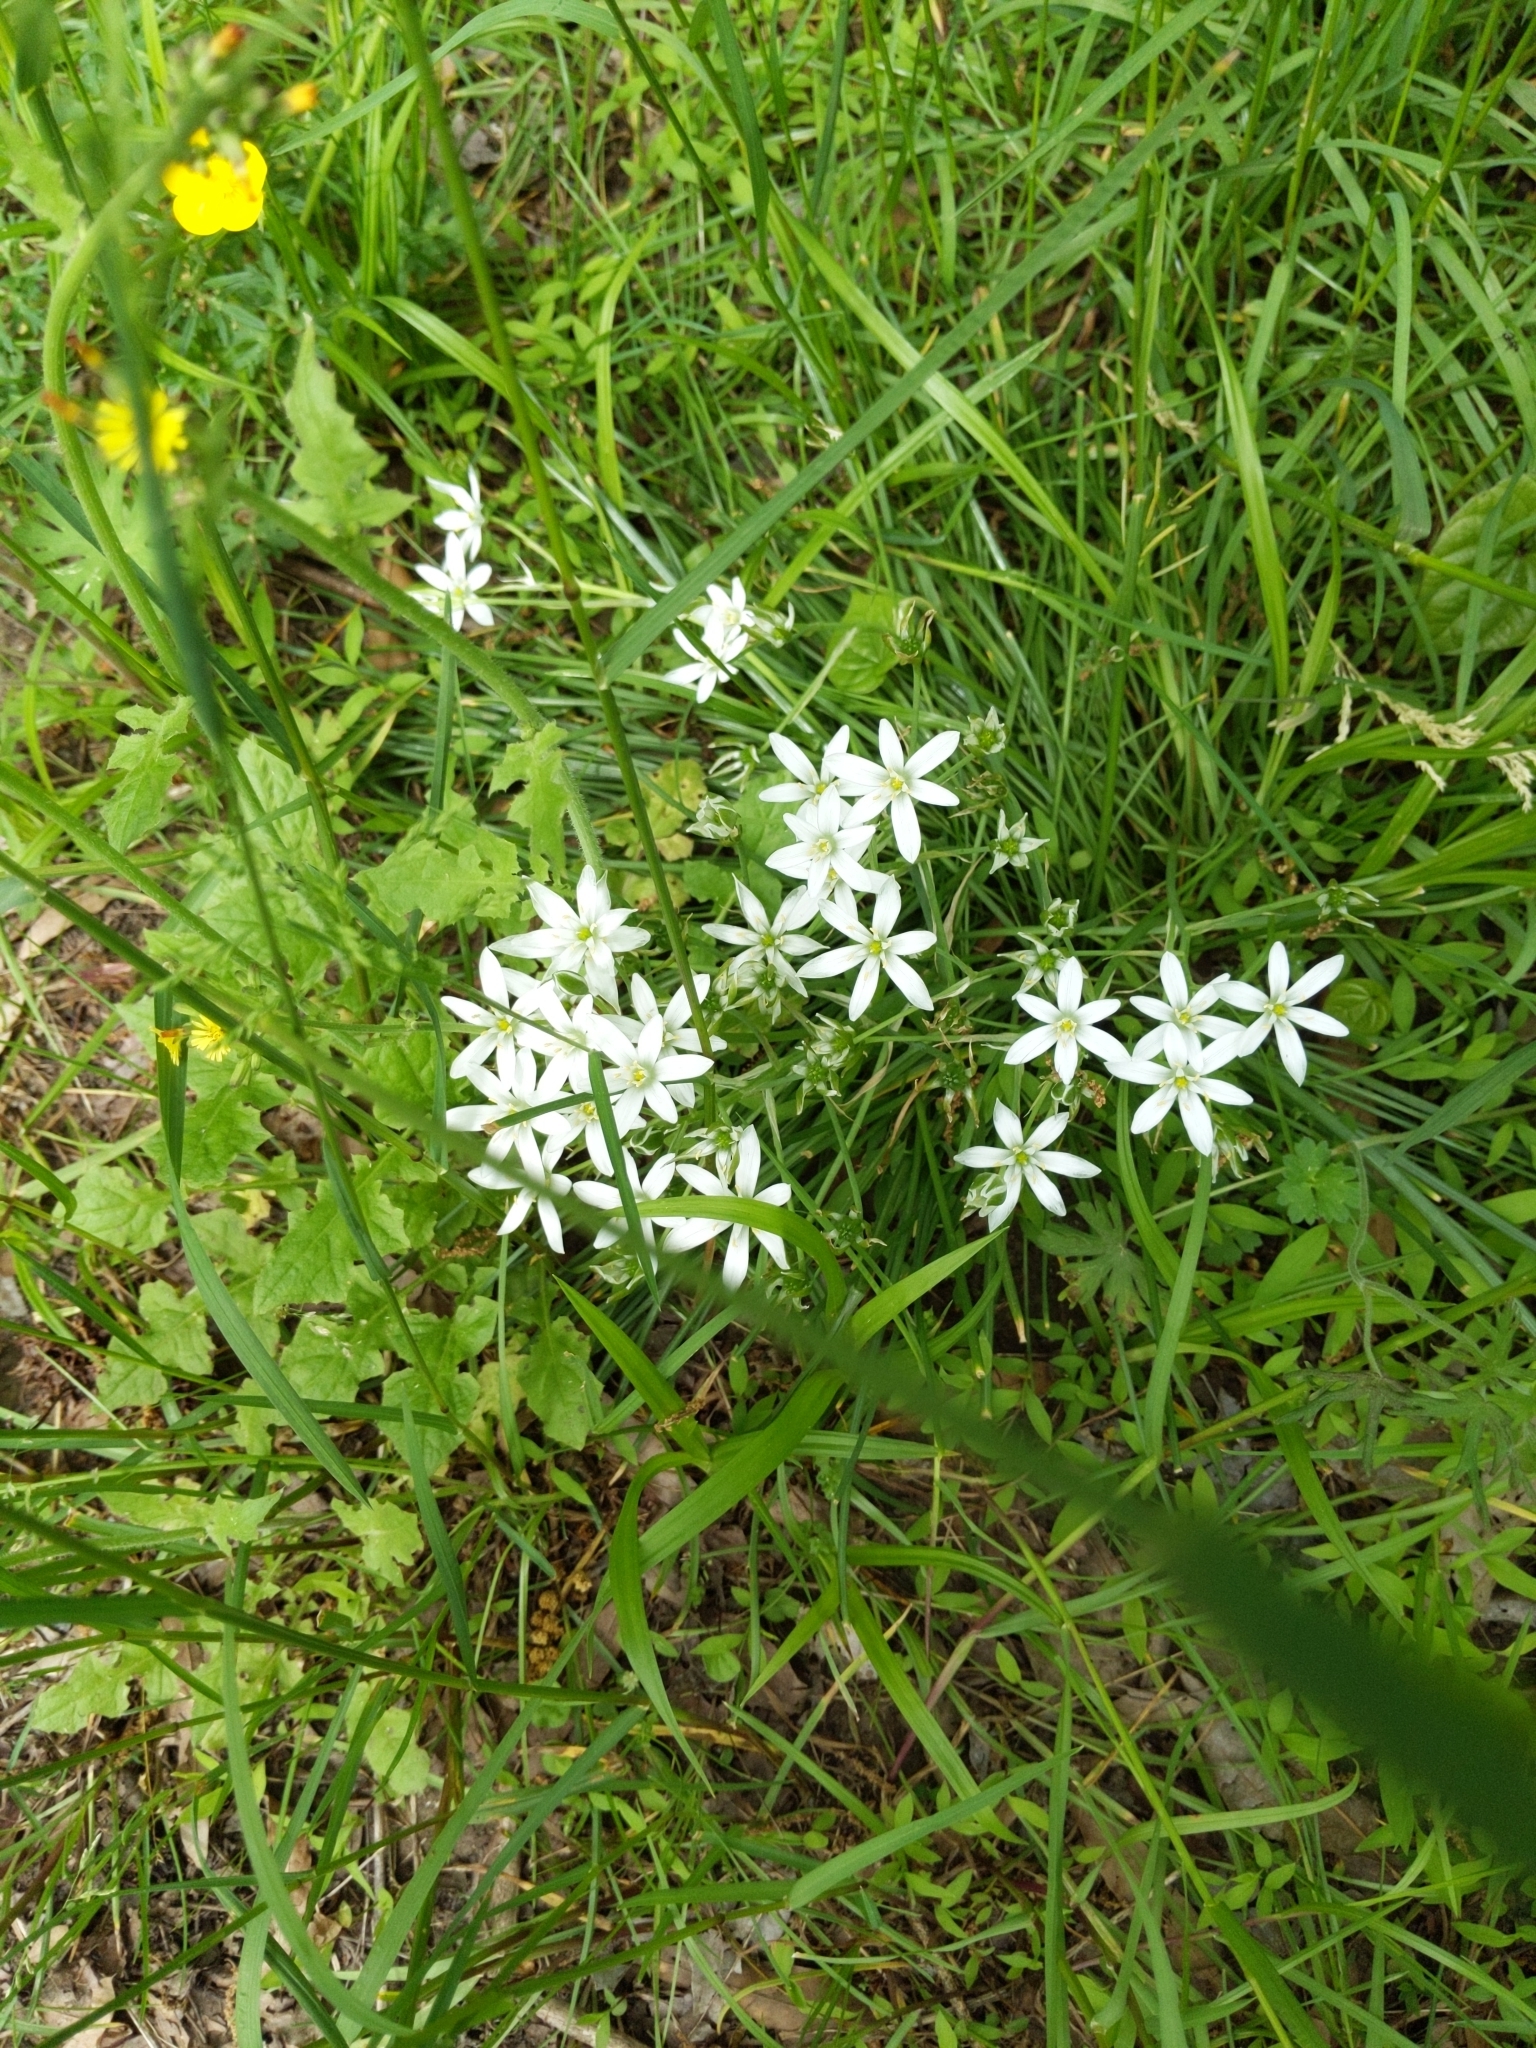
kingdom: Plantae
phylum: Tracheophyta
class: Liliopsida
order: Asparagales
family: Asparagaceae
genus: Ornithogalum
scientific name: Ornithogalum umbellatum
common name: Garden star-of-bethlehem
